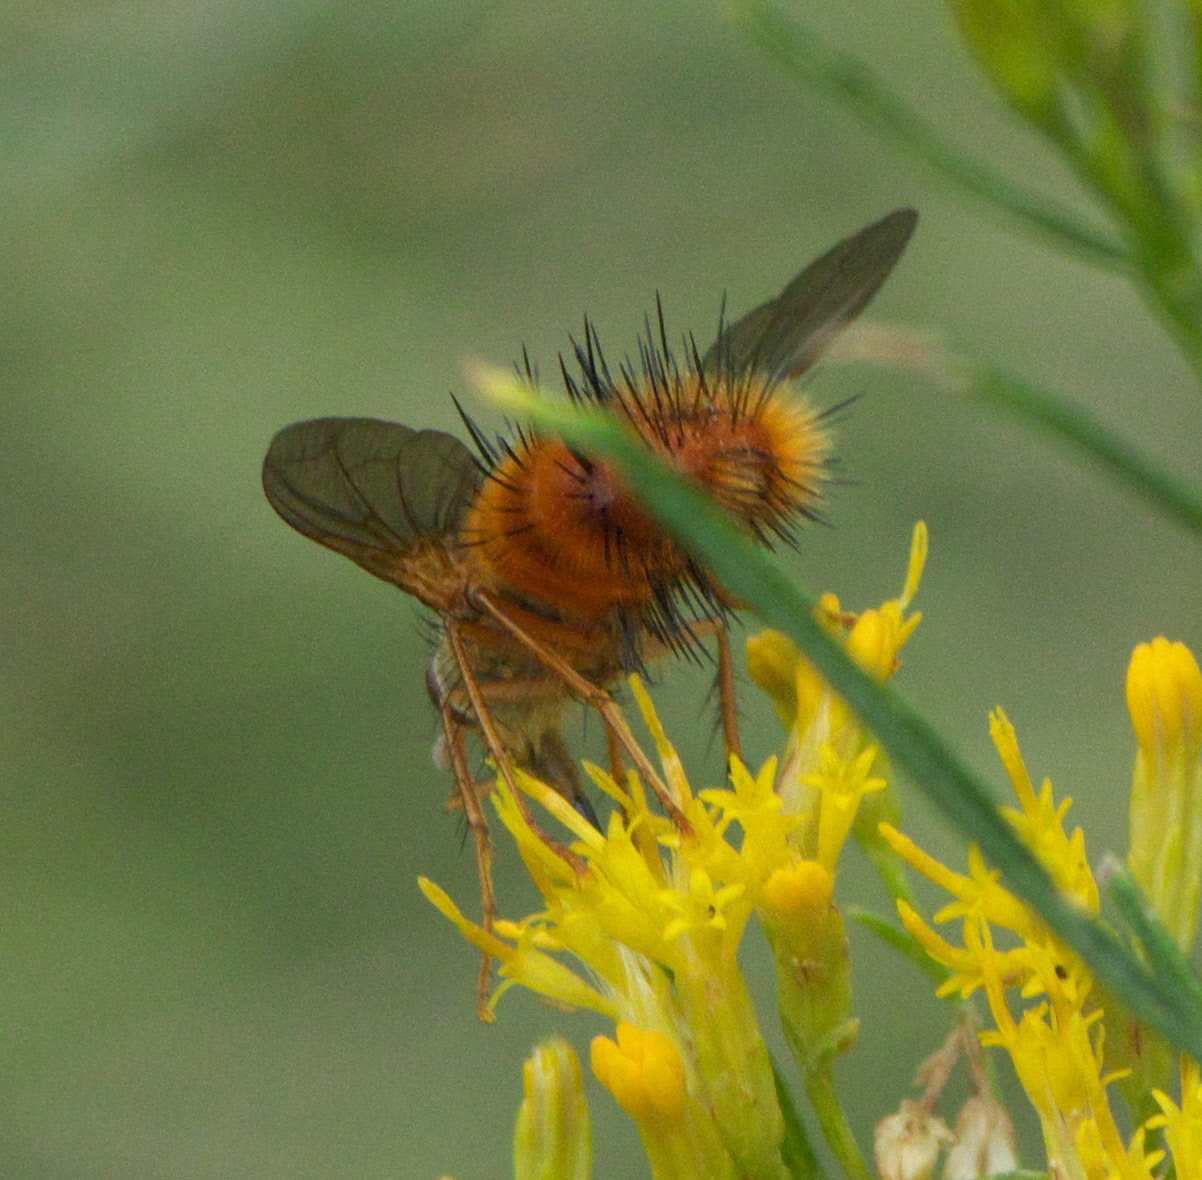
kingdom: Animalia
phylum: Arthropoda
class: Insecta
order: Diptera
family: Tachinidae
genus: Adejeania
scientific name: Adejeania vexatrix
